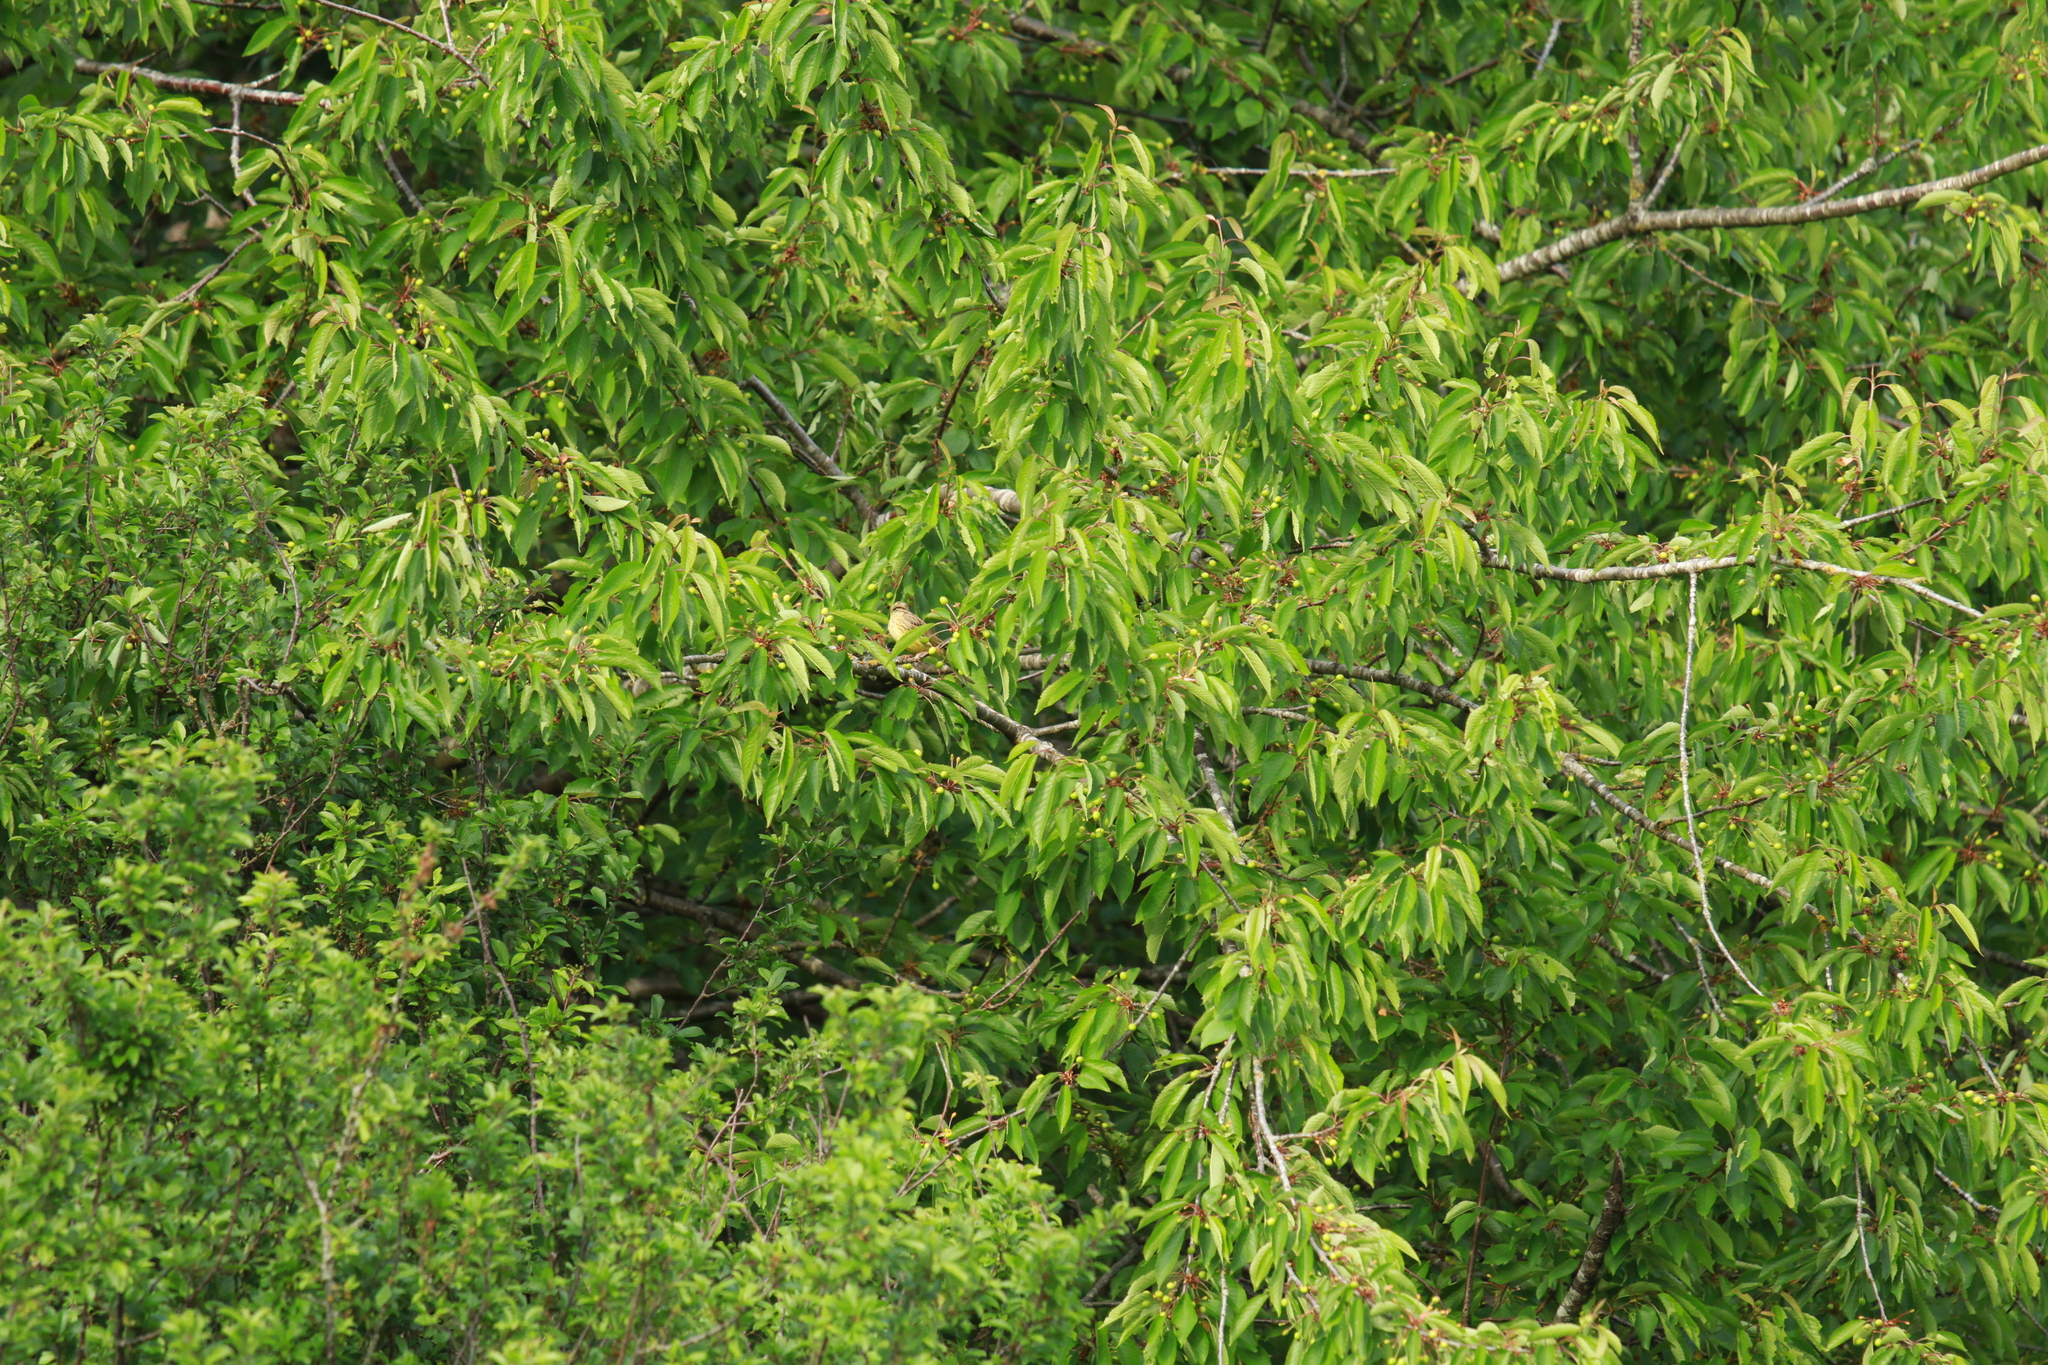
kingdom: Animalia
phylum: Chordata
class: Aves
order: Passeriformes
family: Emberizidae
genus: Emberiza
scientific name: Emberiza citrinella
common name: Yellowhammer
